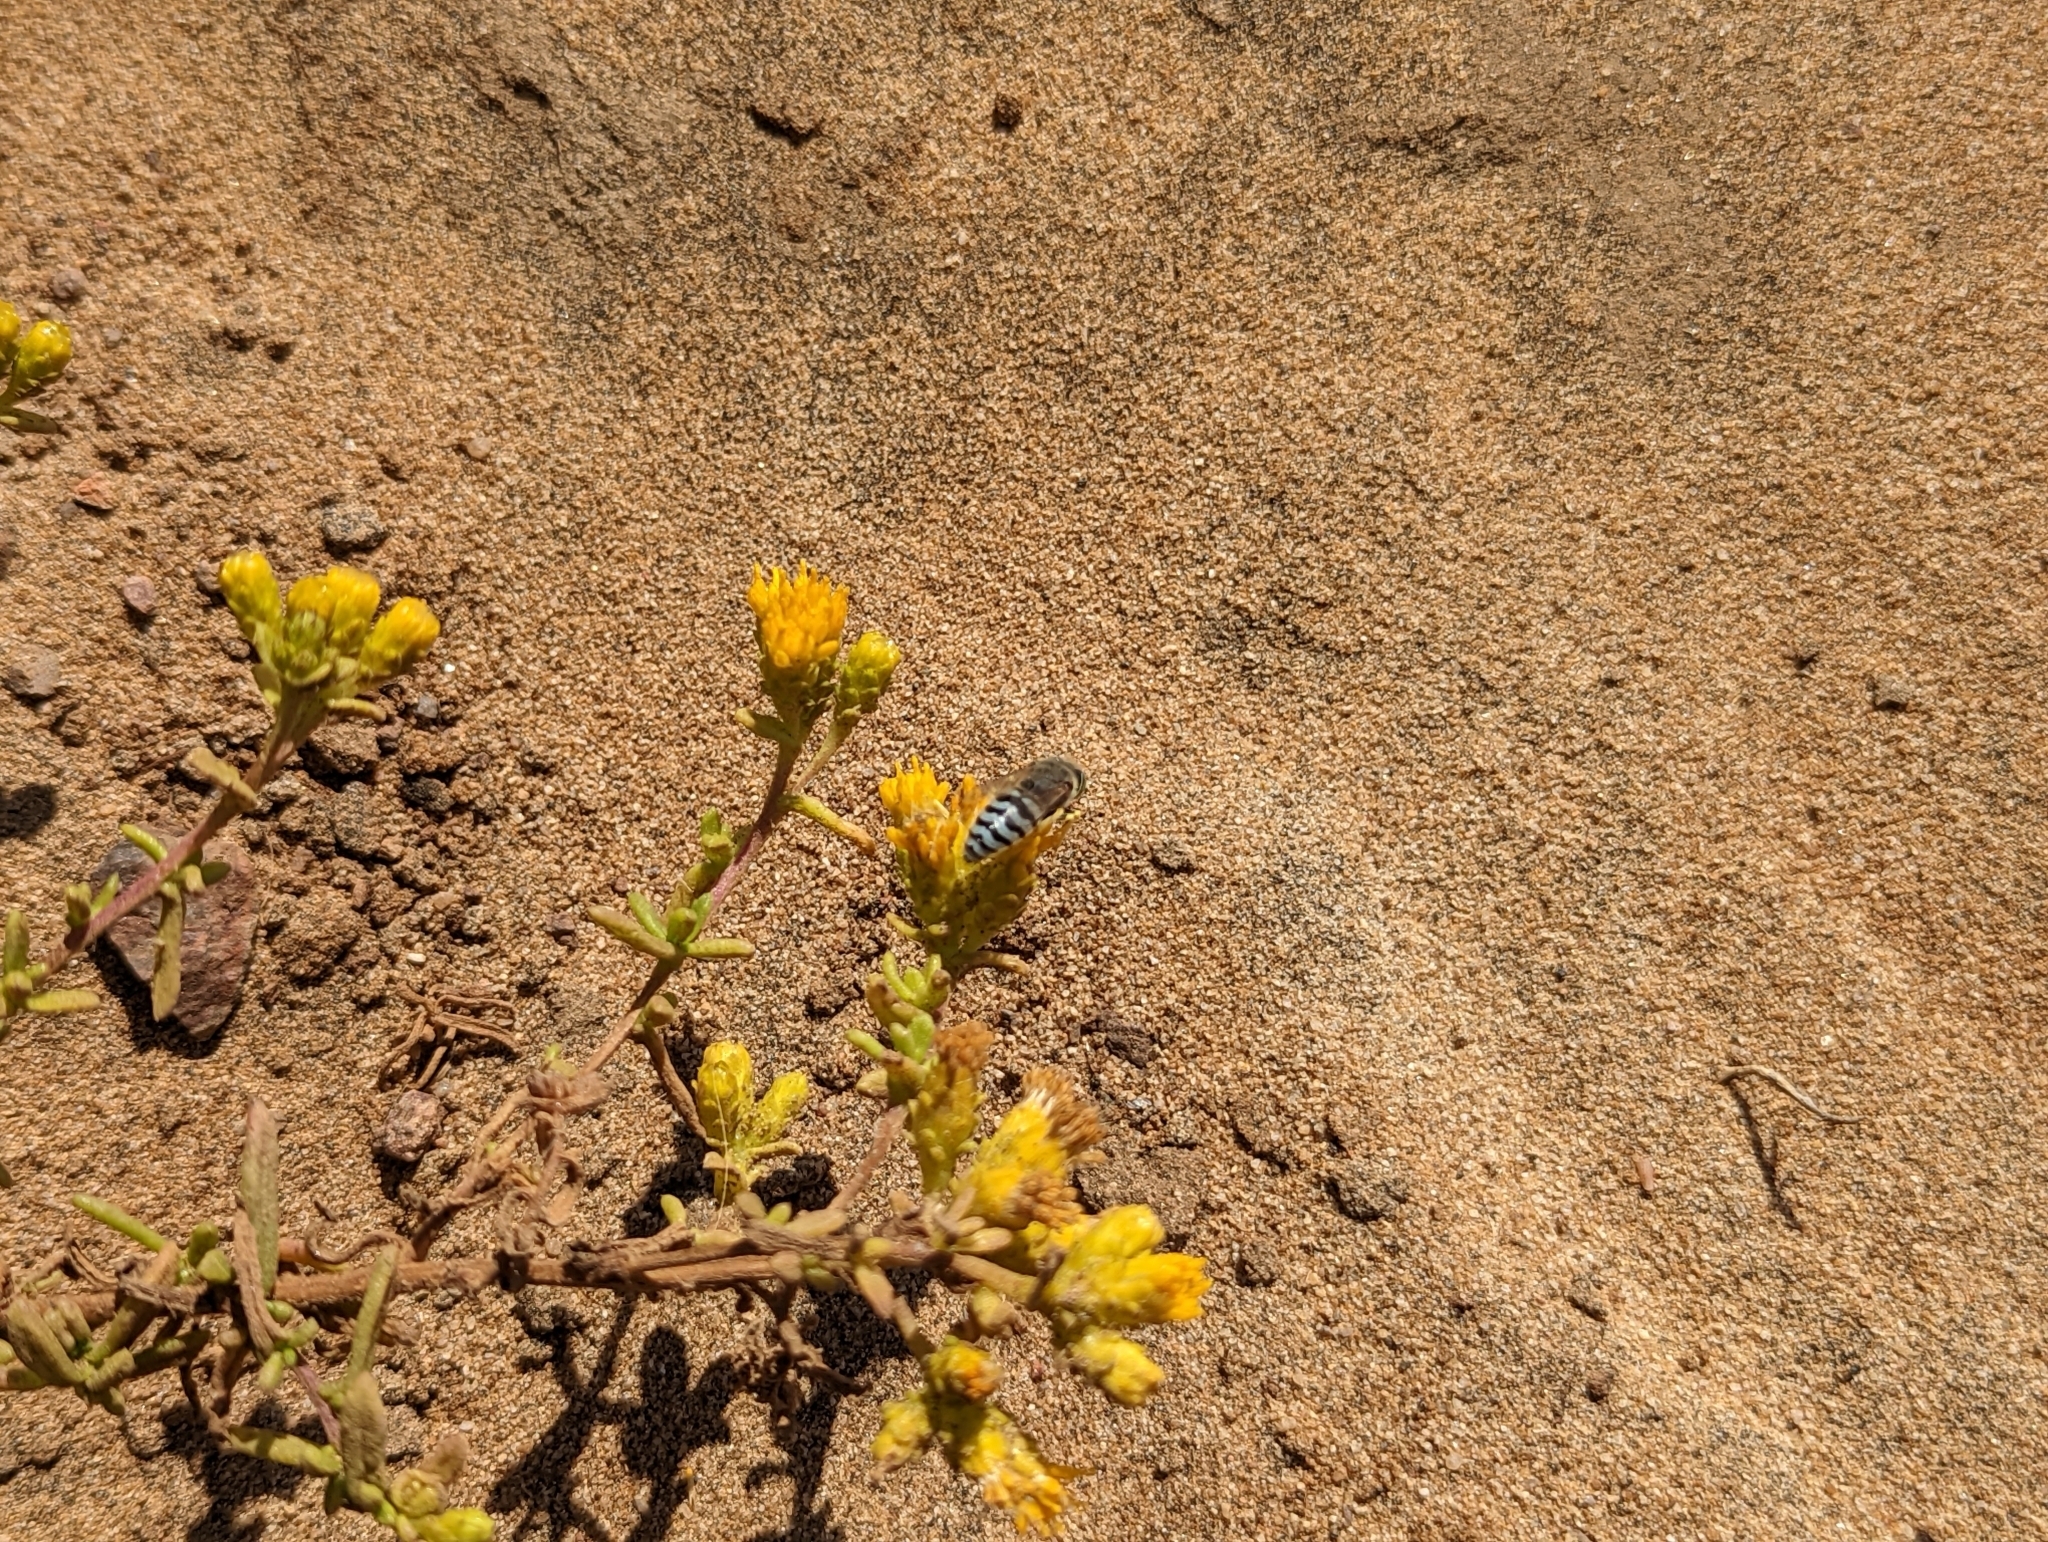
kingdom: Animalia
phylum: Arthropoda
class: Insecta
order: Hymenoptera
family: Crabronidae
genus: Bembix
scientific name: Bembix americana
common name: American sand wasp
